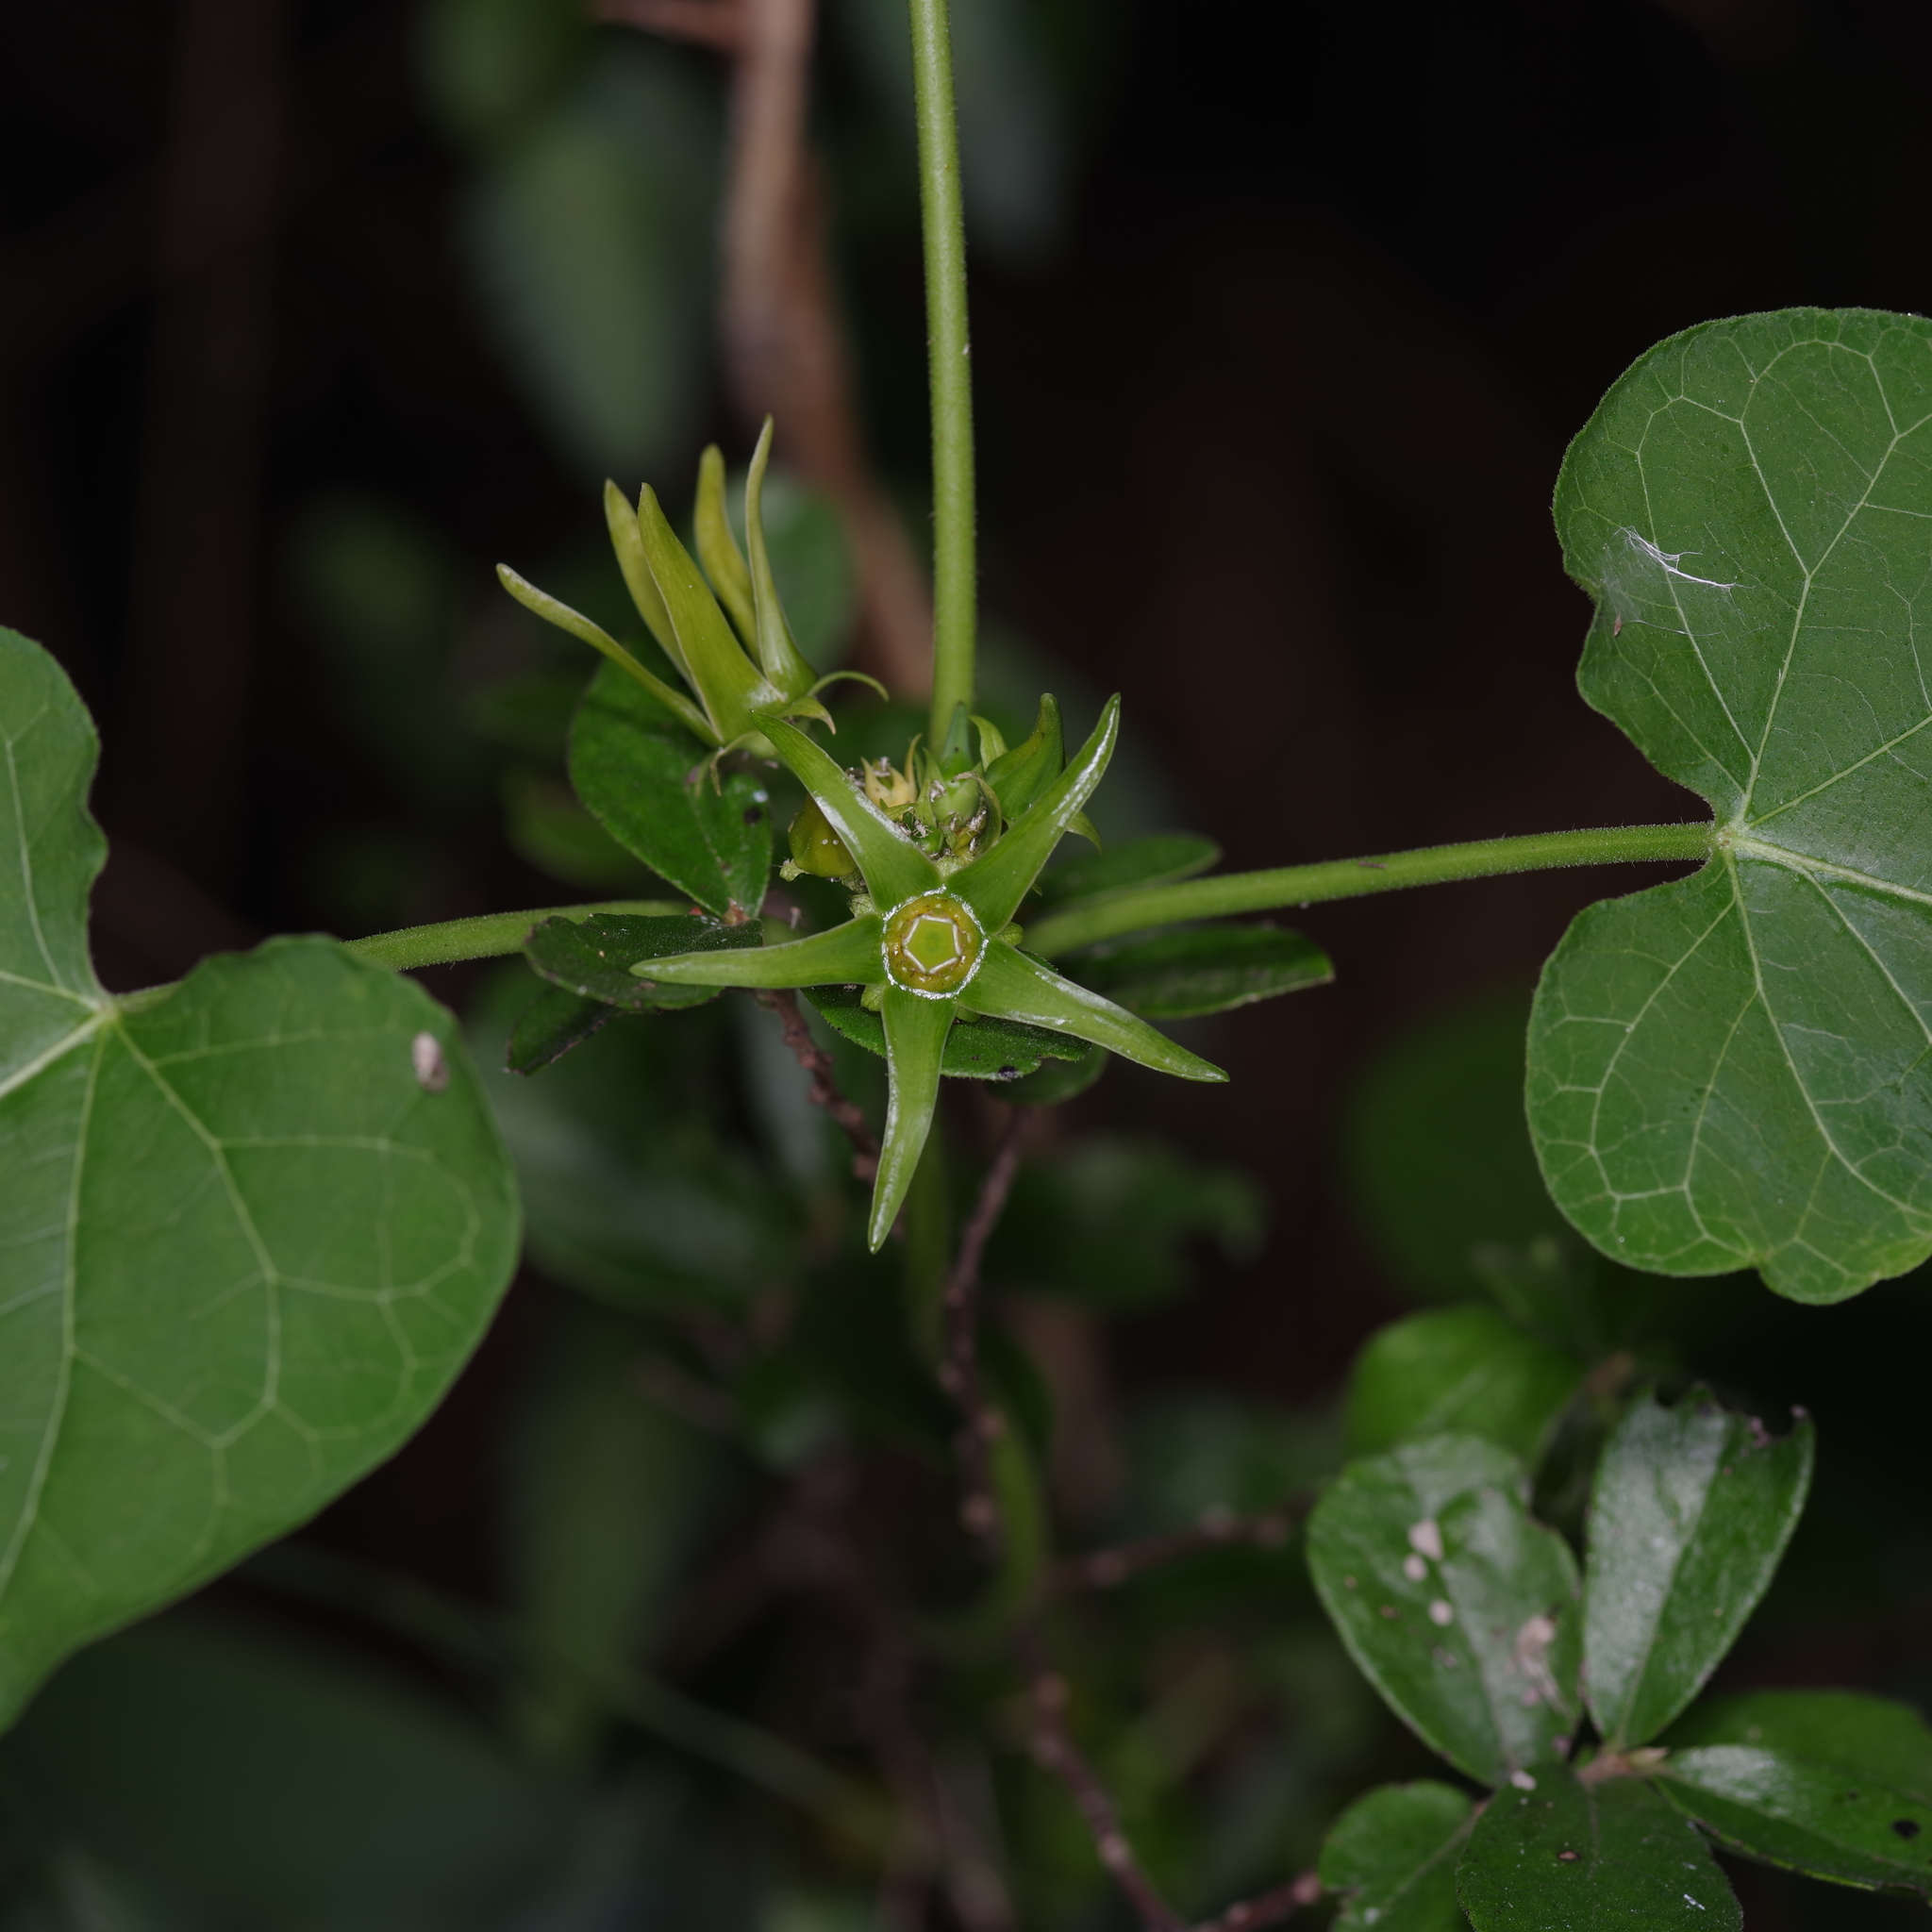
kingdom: Plantae
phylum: Tracheophyta
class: Magnoliopsida
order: Gentianales
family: Apocynaceae
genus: Gonolobus
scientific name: Gonolobus suberosus
